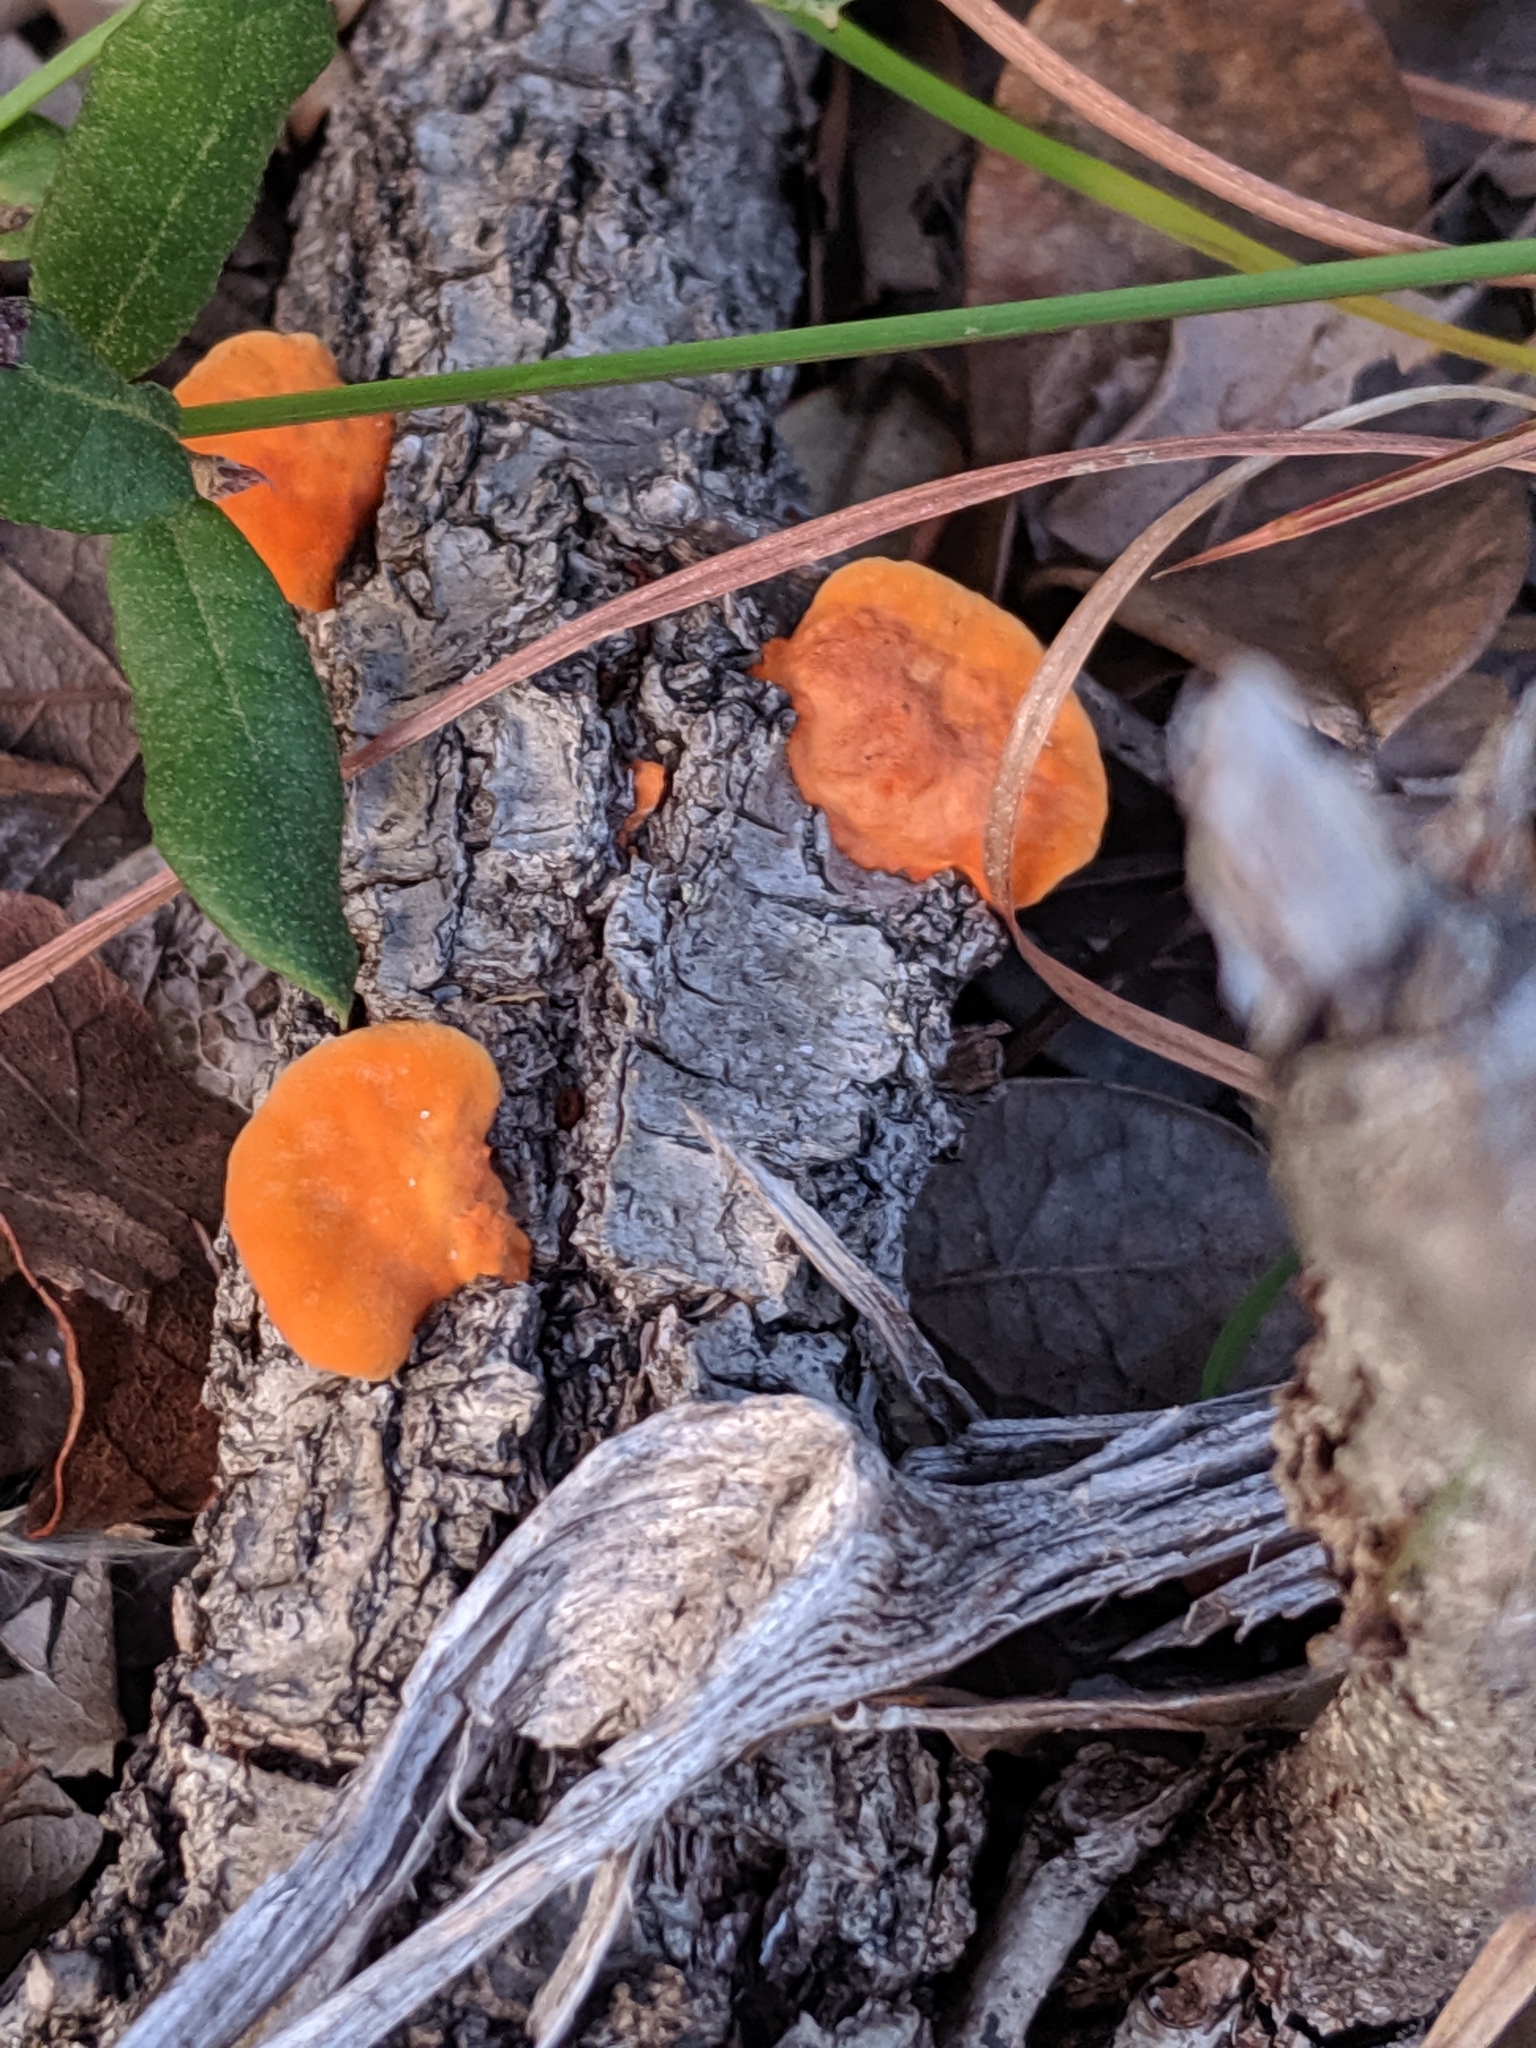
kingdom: Fungi
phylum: Basidiomycota
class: Agaricomycetes
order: Polyporales
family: Polyporaceae
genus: Trametes
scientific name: Trametes cinnabarina
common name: Northern cinnabar polypore
